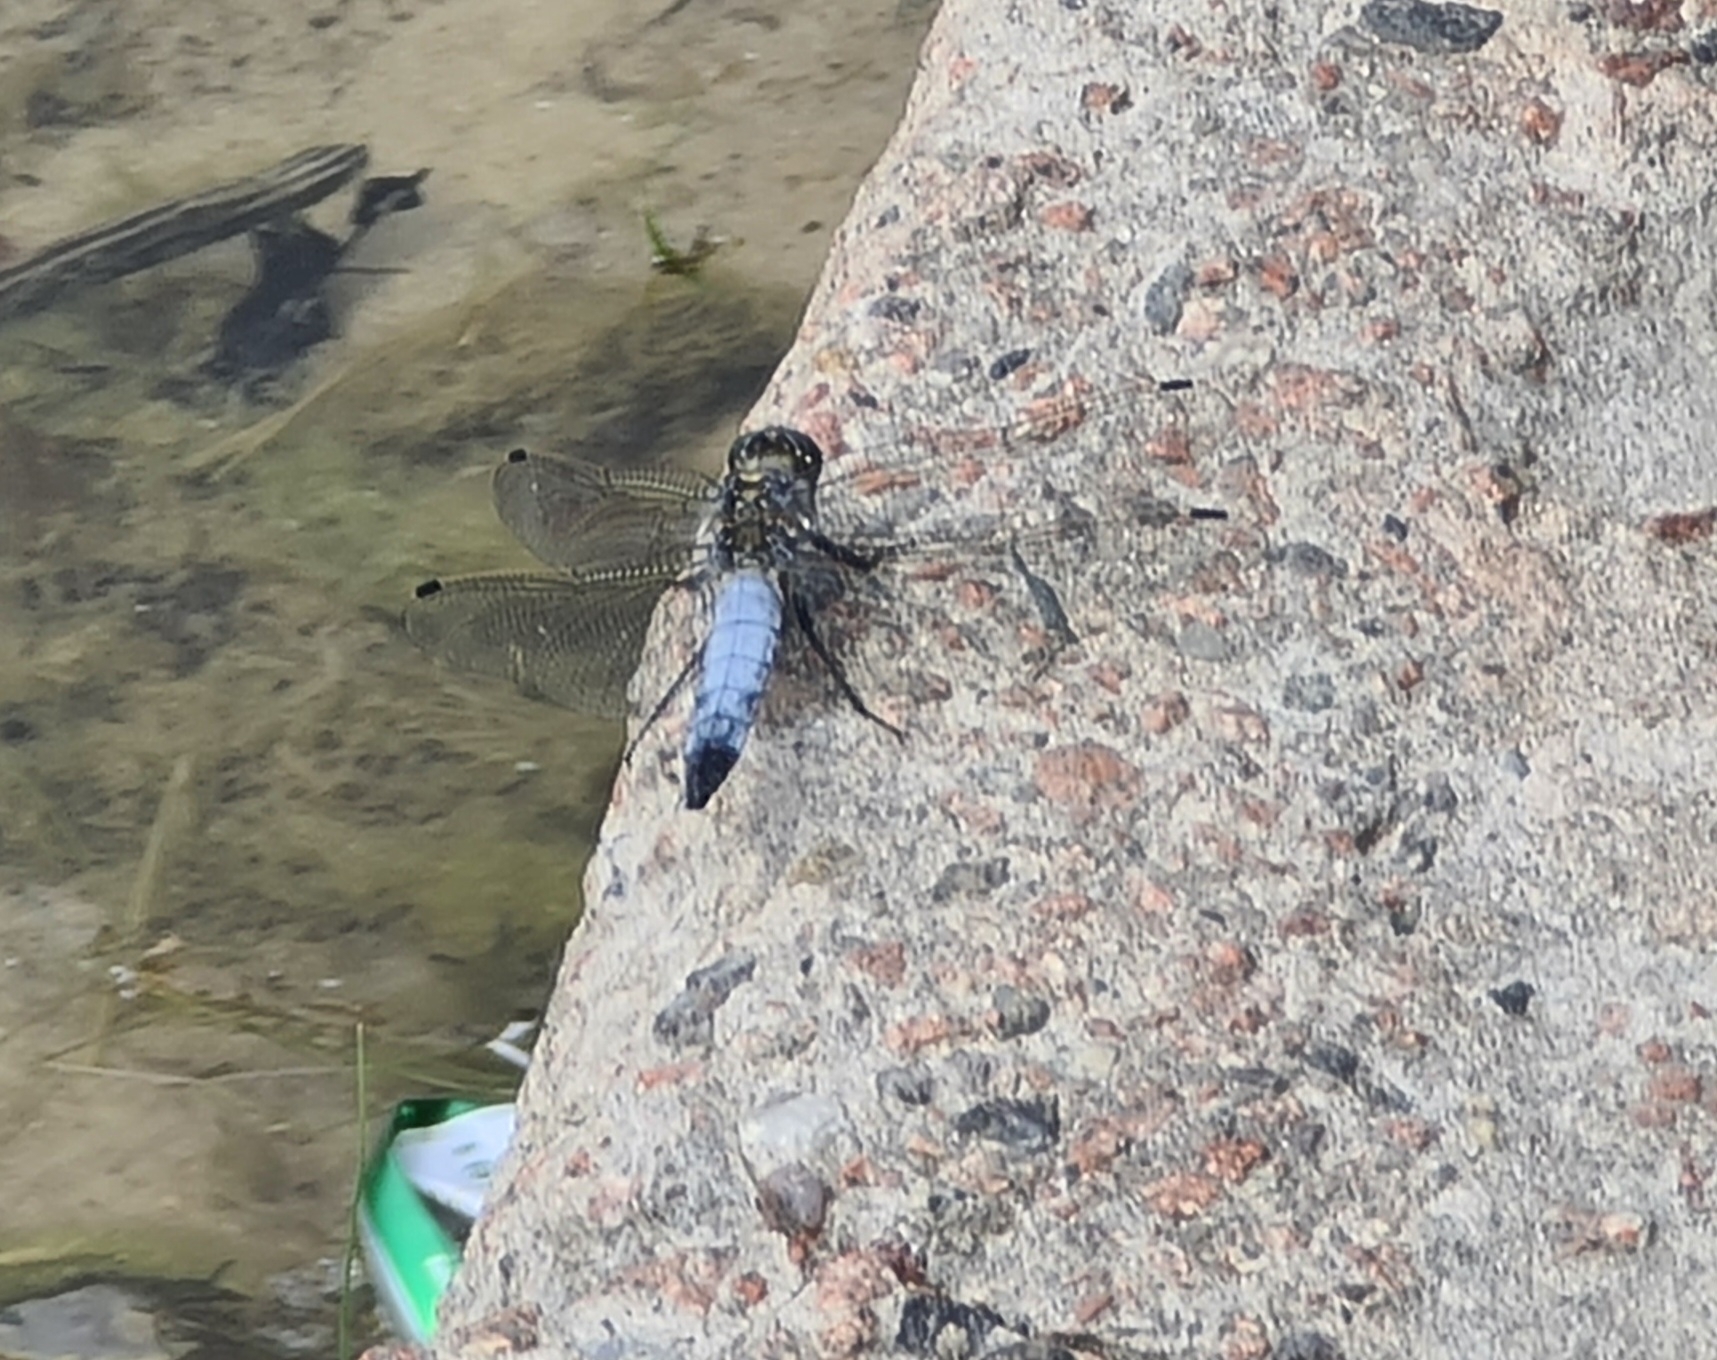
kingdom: Animalia
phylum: Arthropoda
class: Insecta
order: Odonata
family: Libellulidae
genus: Orthetrum
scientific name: Orthetrum cancellatum
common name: Black-tailed skimmer
